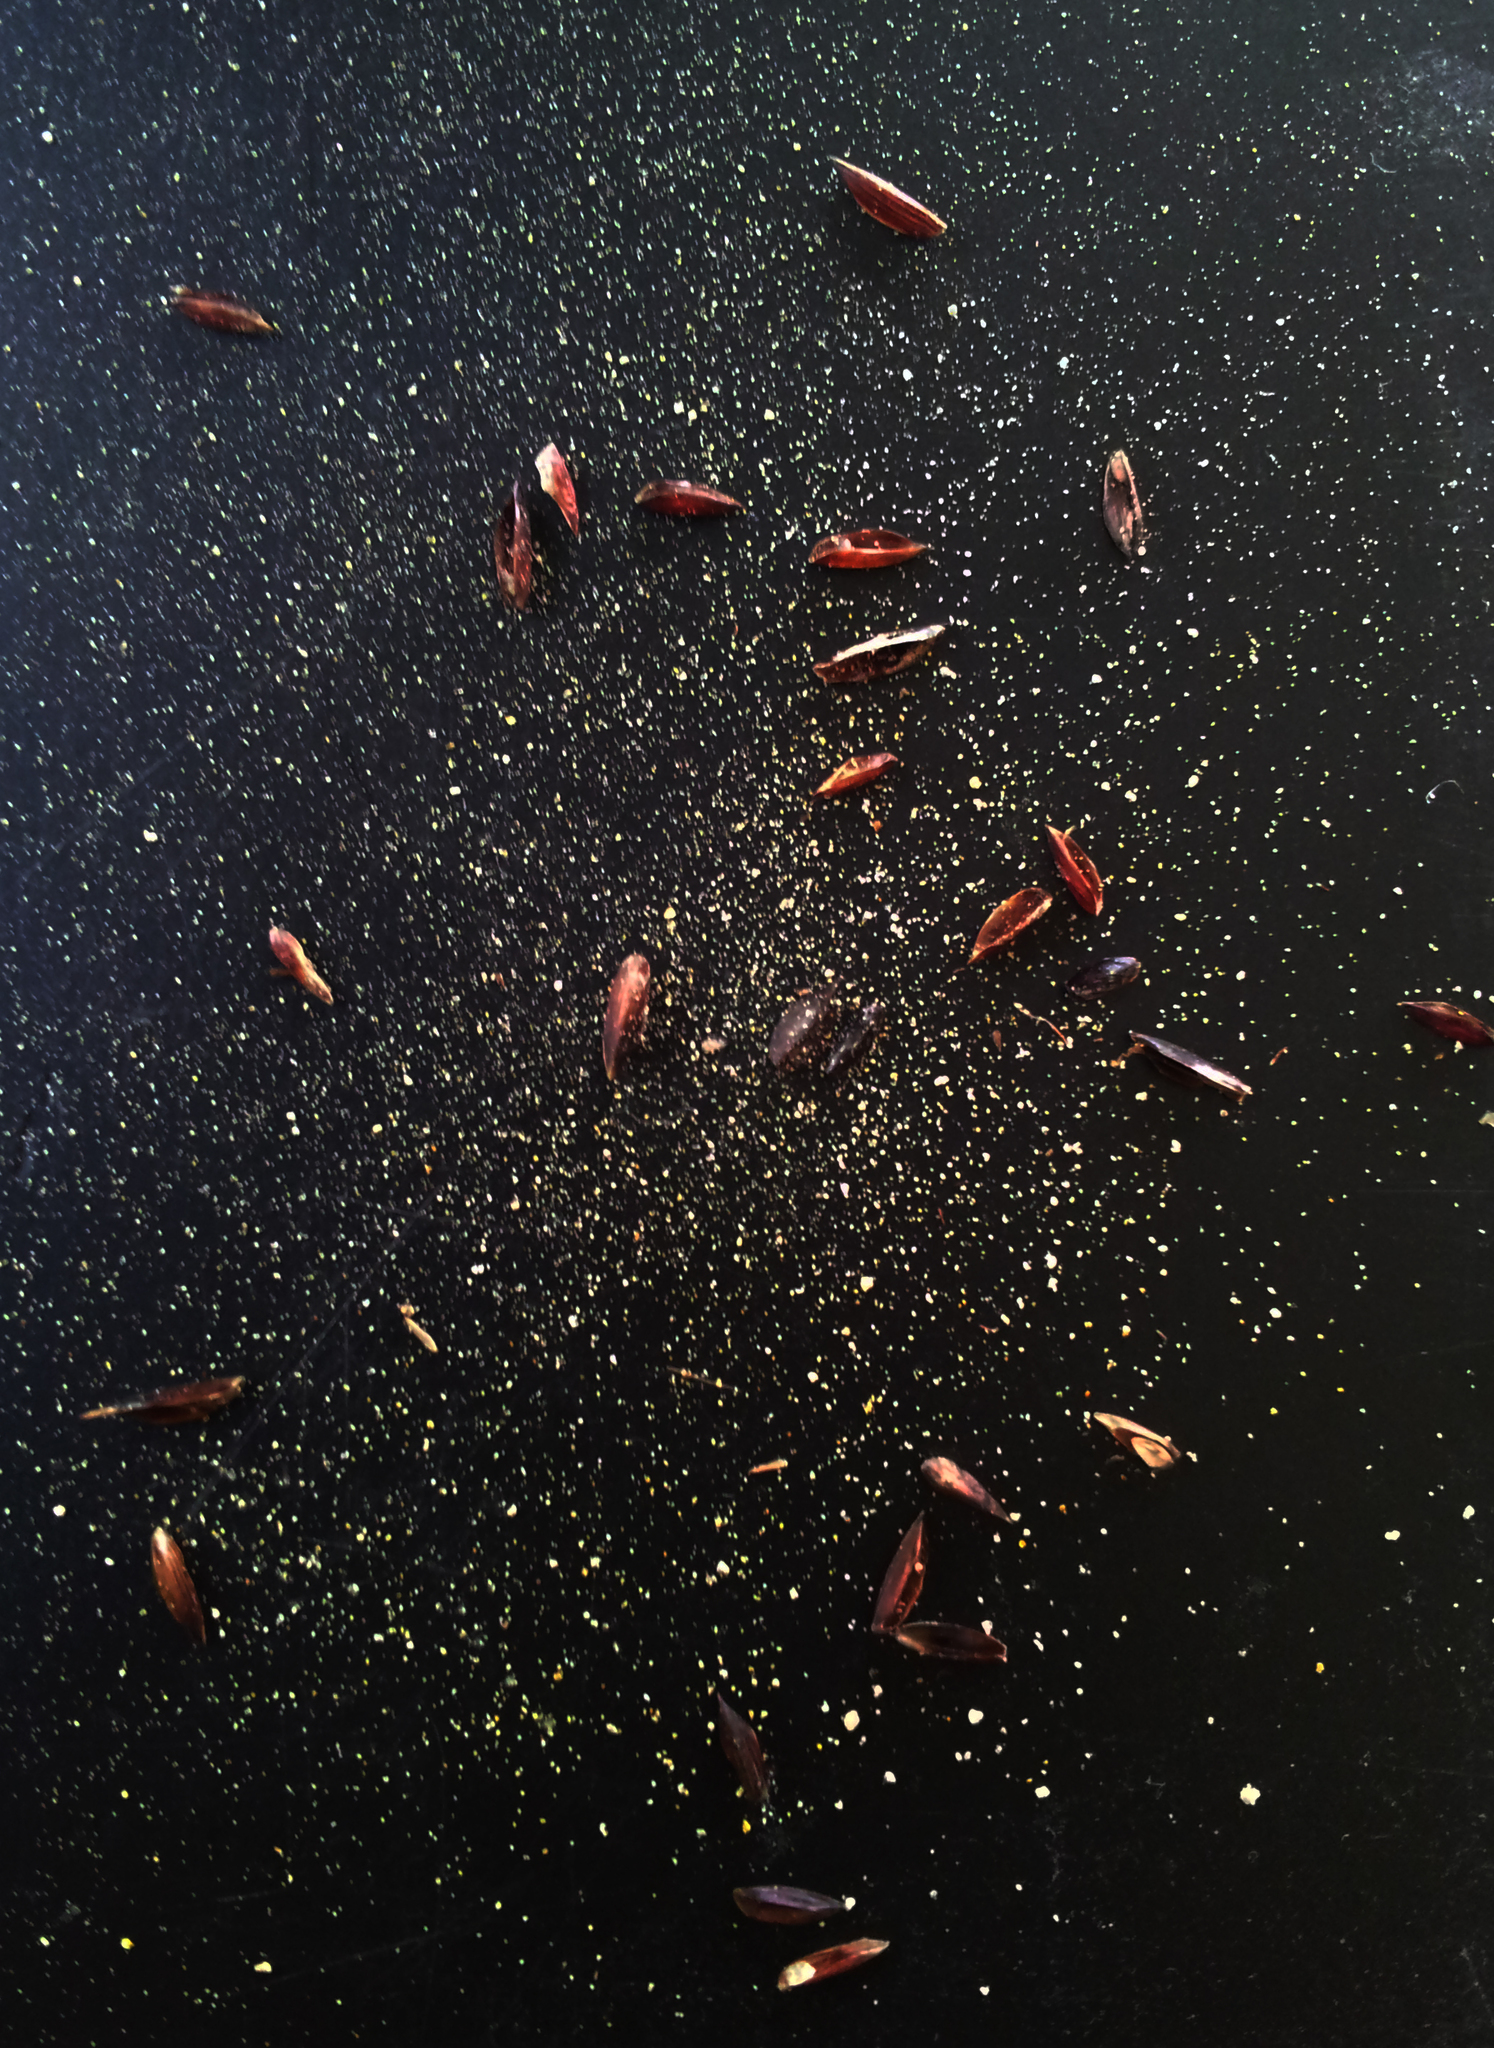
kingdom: Fungi
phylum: Basidiomycota
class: Microbotryomycetes
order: Microbotryales
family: Microbotryaceae
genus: Bauerago
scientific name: Bauerago gardneri
